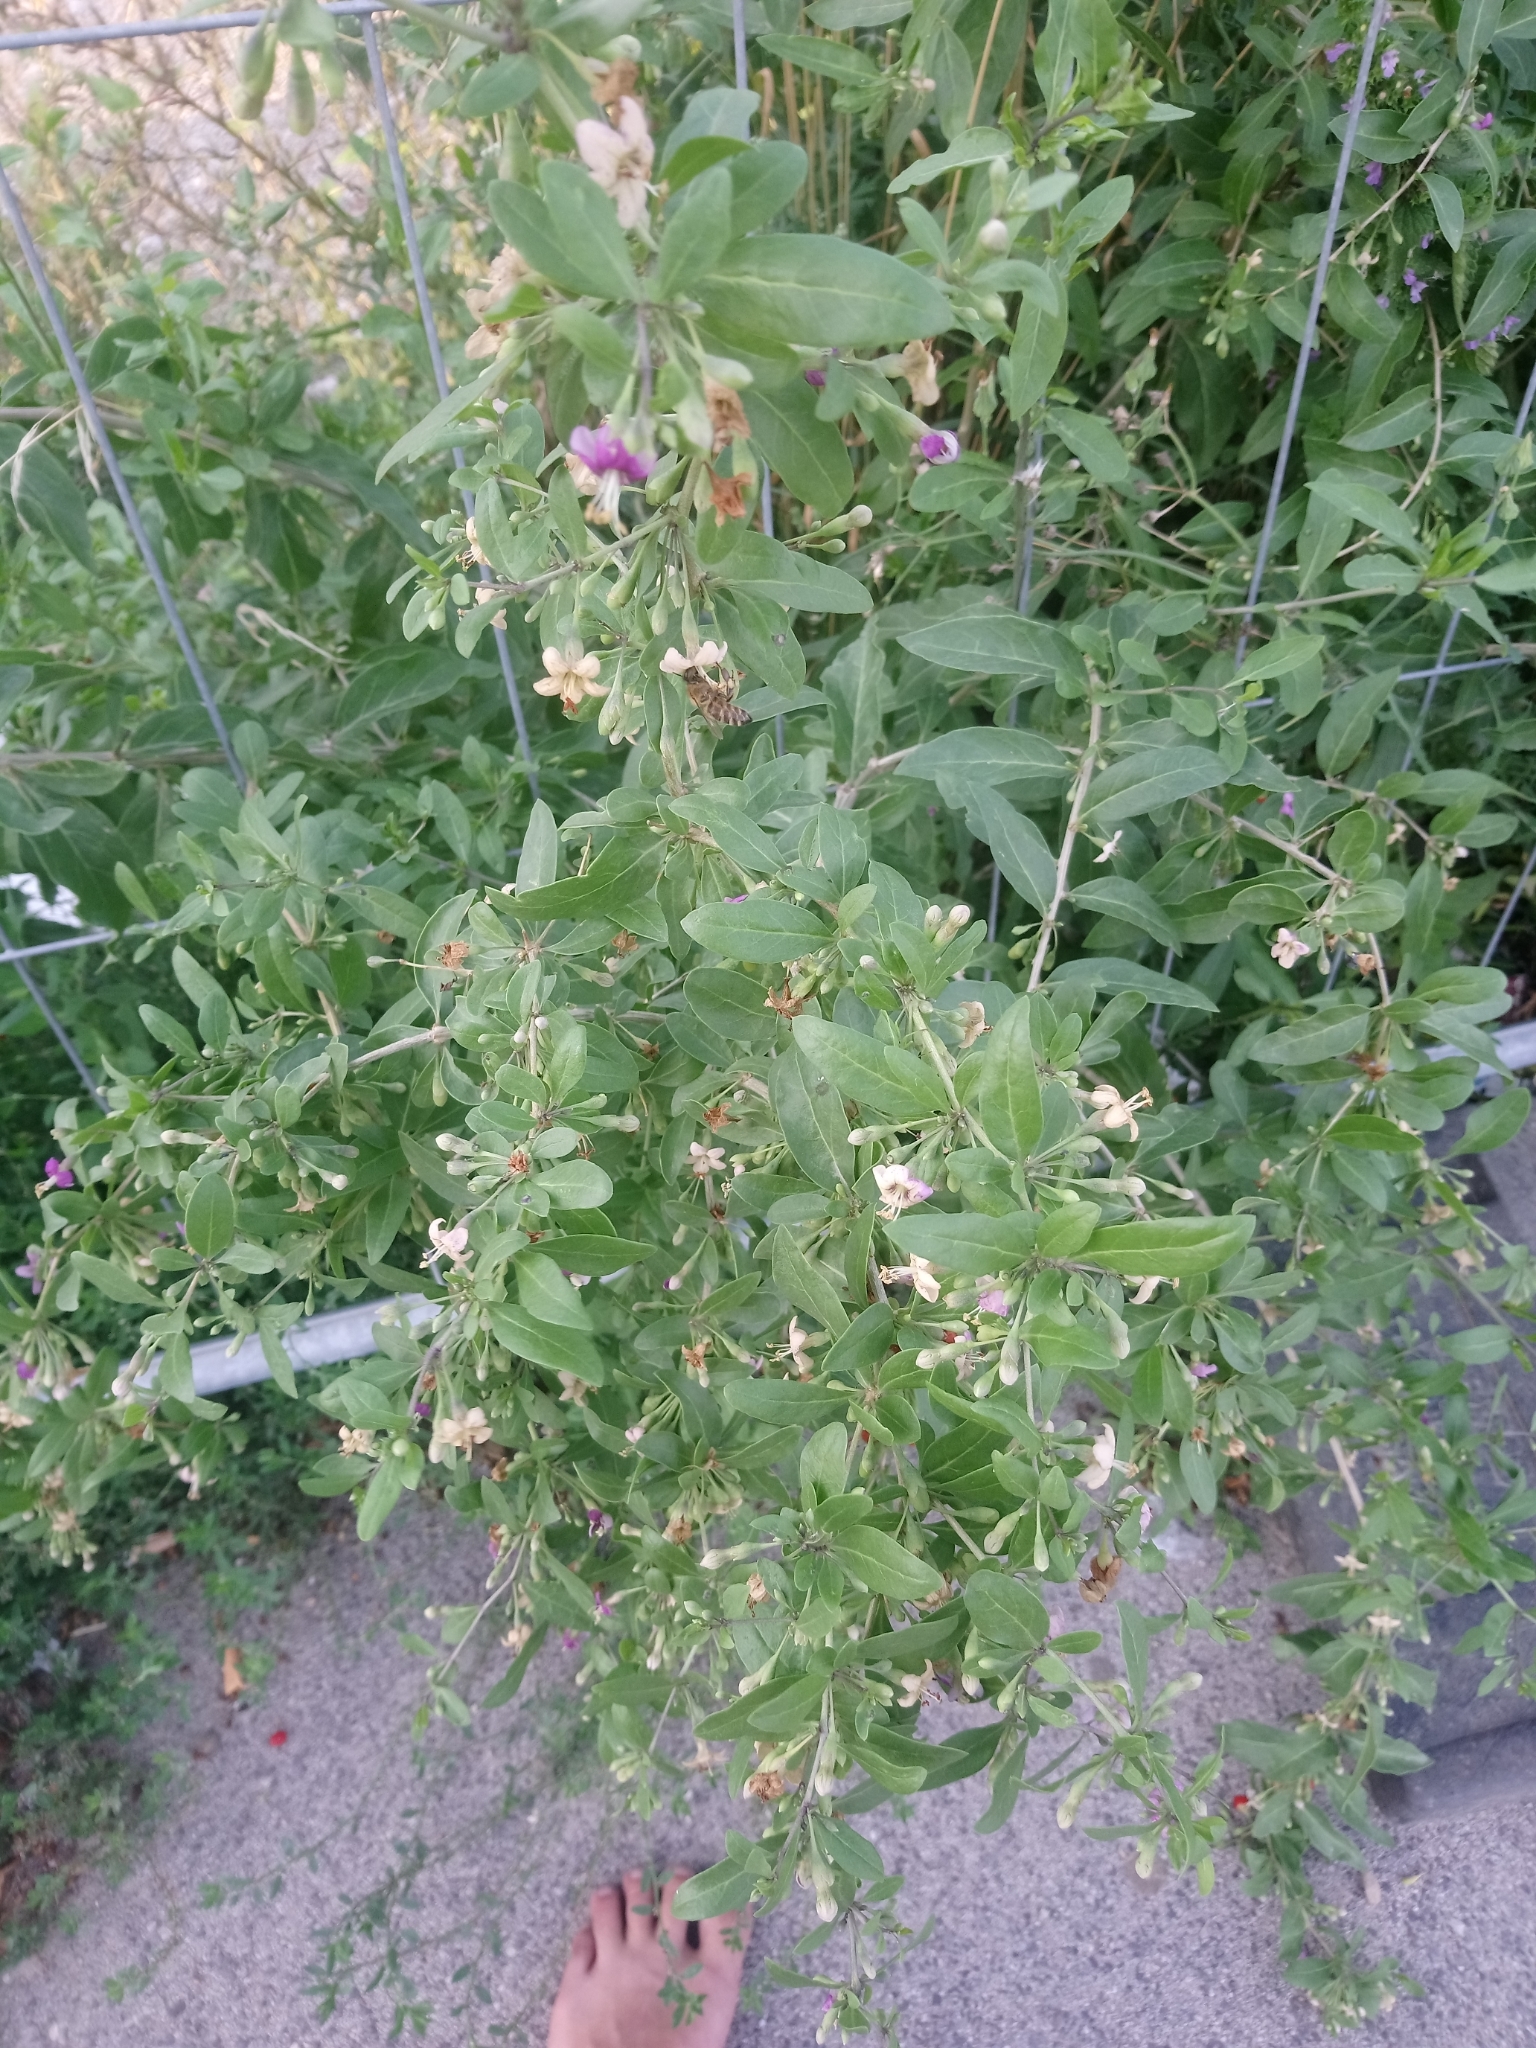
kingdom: Plantae
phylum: Tracheophyta
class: Magnoliopsida
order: Solanales
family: Solanaceae
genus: Lycium
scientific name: Lycium barbarum
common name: Duke of argyll's teaplant
